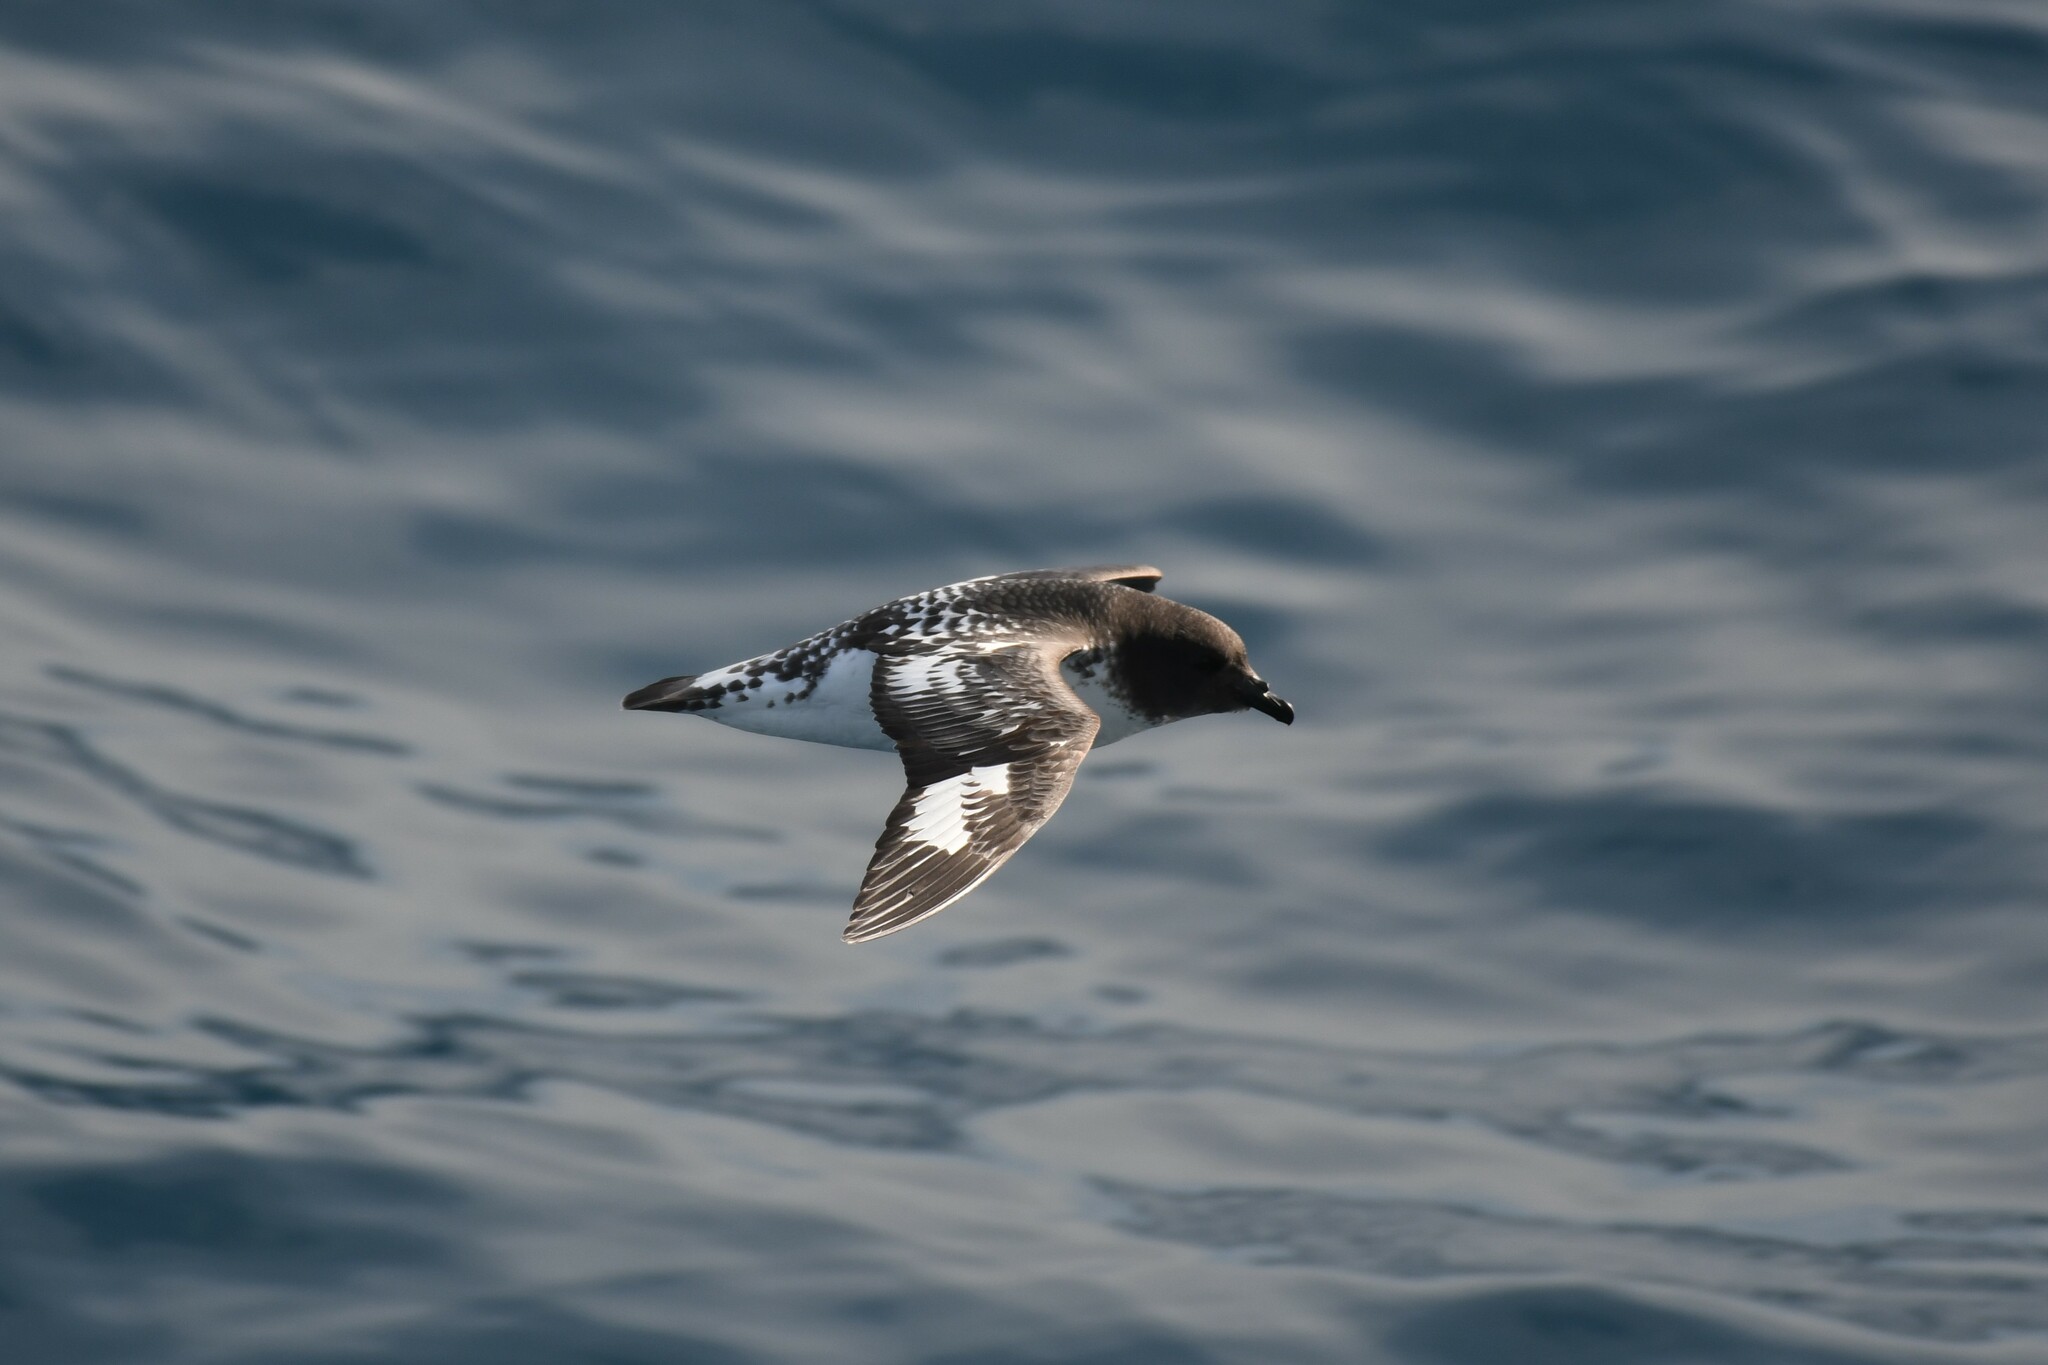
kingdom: Animalia
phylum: Chordata
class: Aves
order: Procellariiformes
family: Procellariidae
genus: Daption
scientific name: Daption capense
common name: Cape petrel
